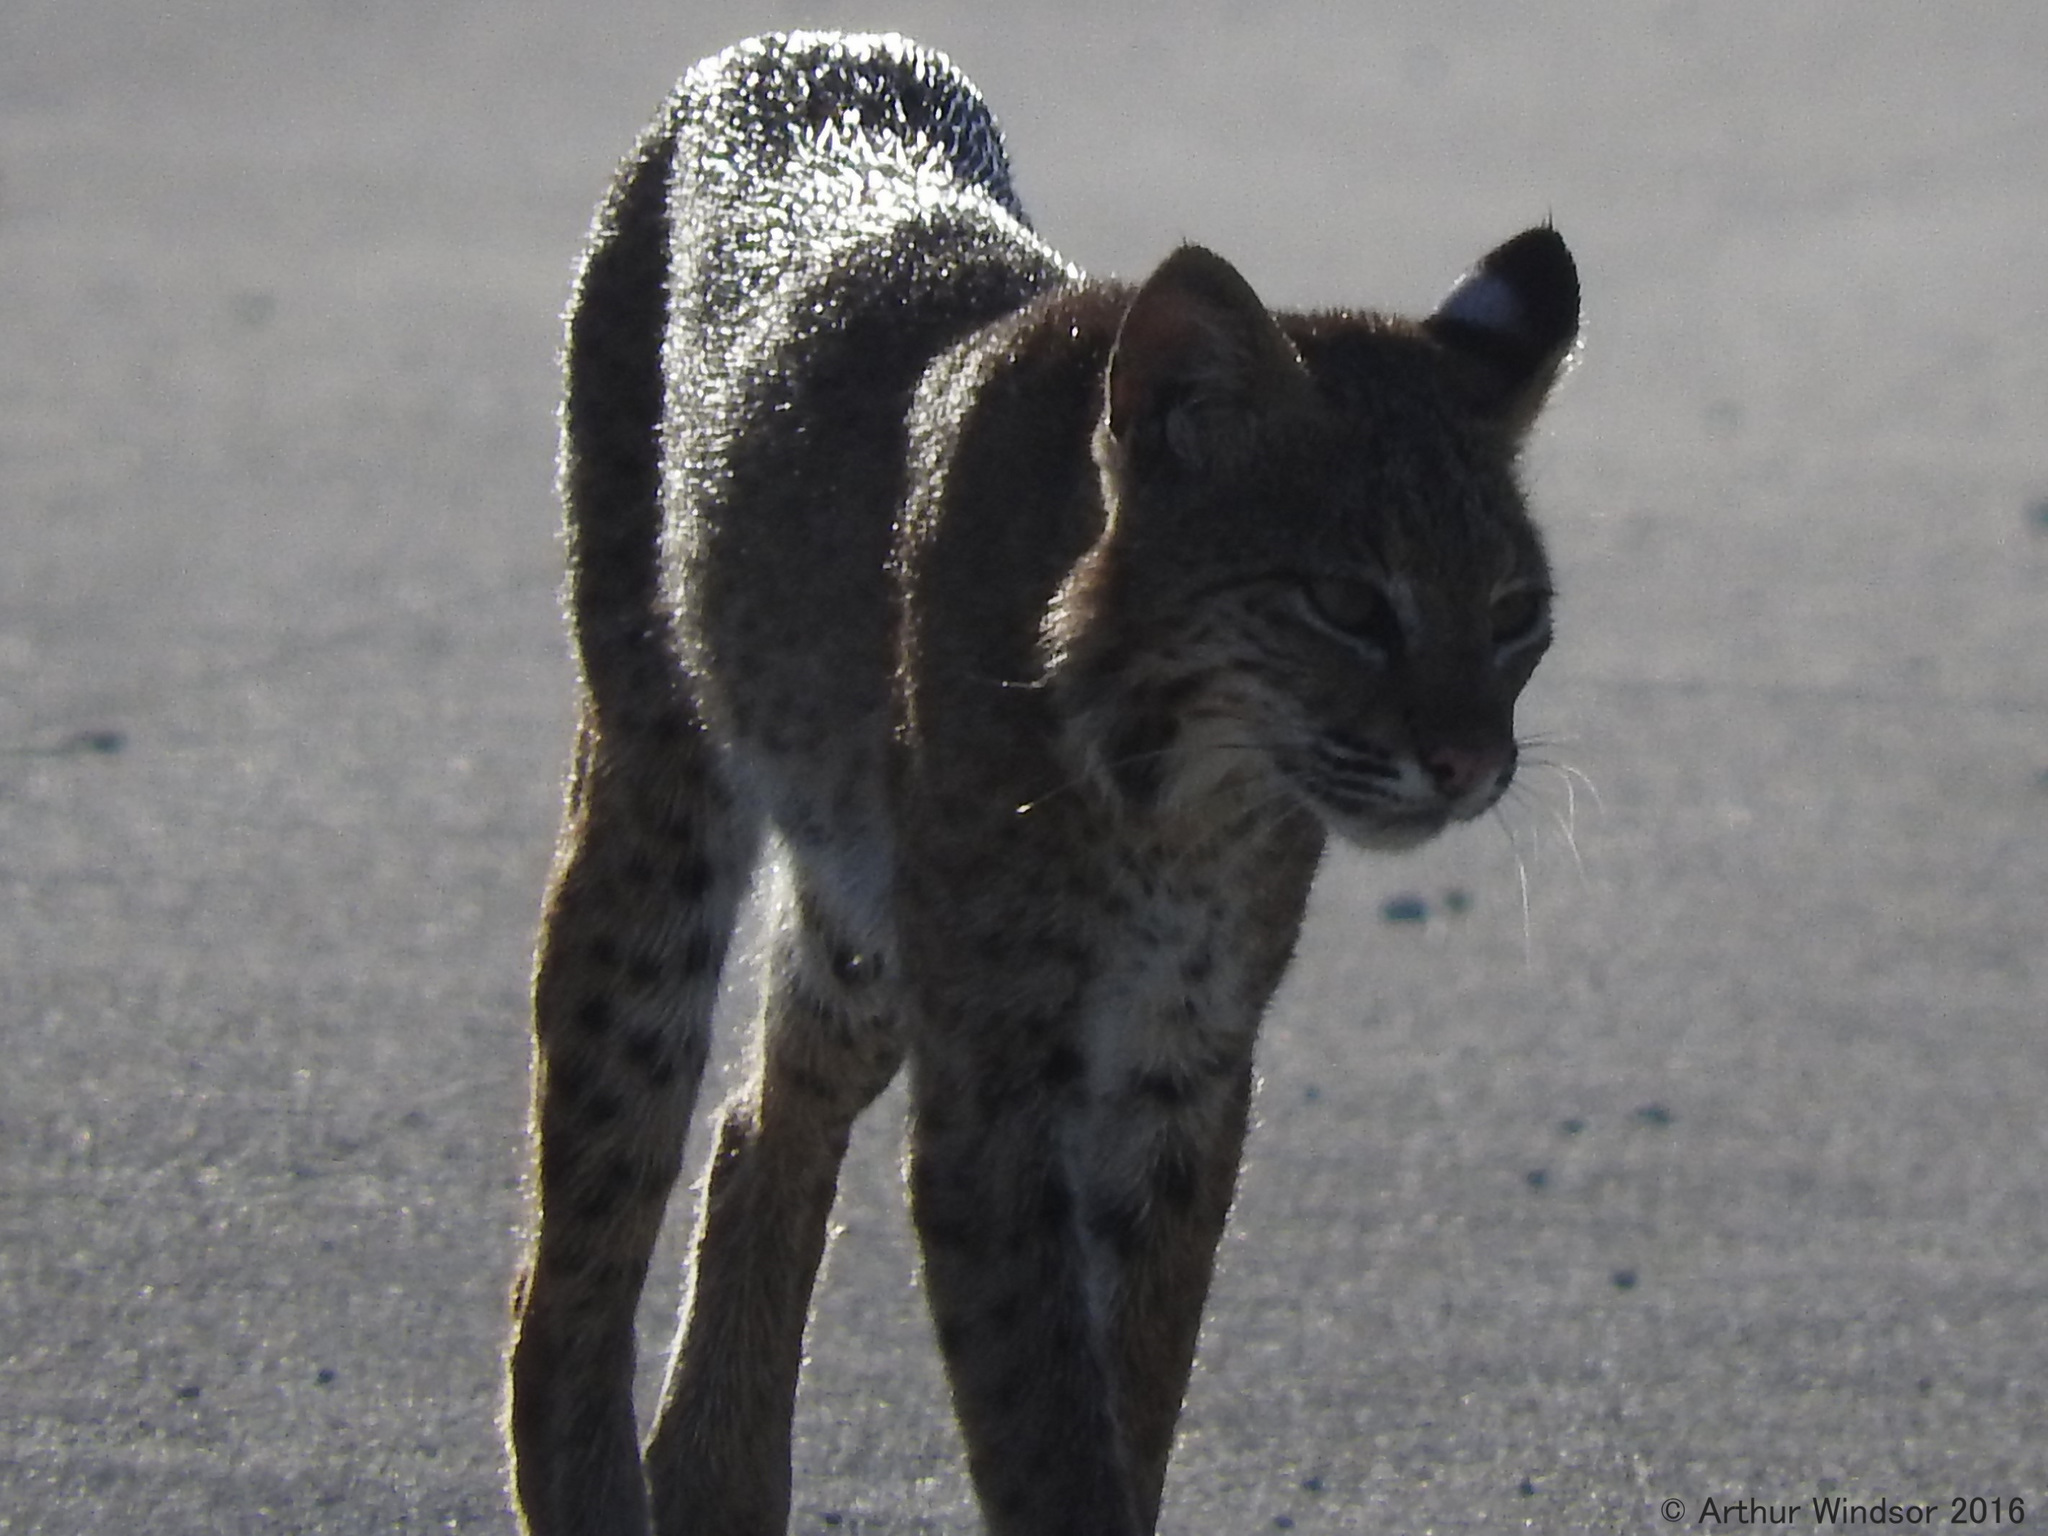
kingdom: Animalia
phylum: Chordata
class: Mammalia
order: Carnivora
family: Felidae
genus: Lynx
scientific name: Lynx rufus
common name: Bobcat
